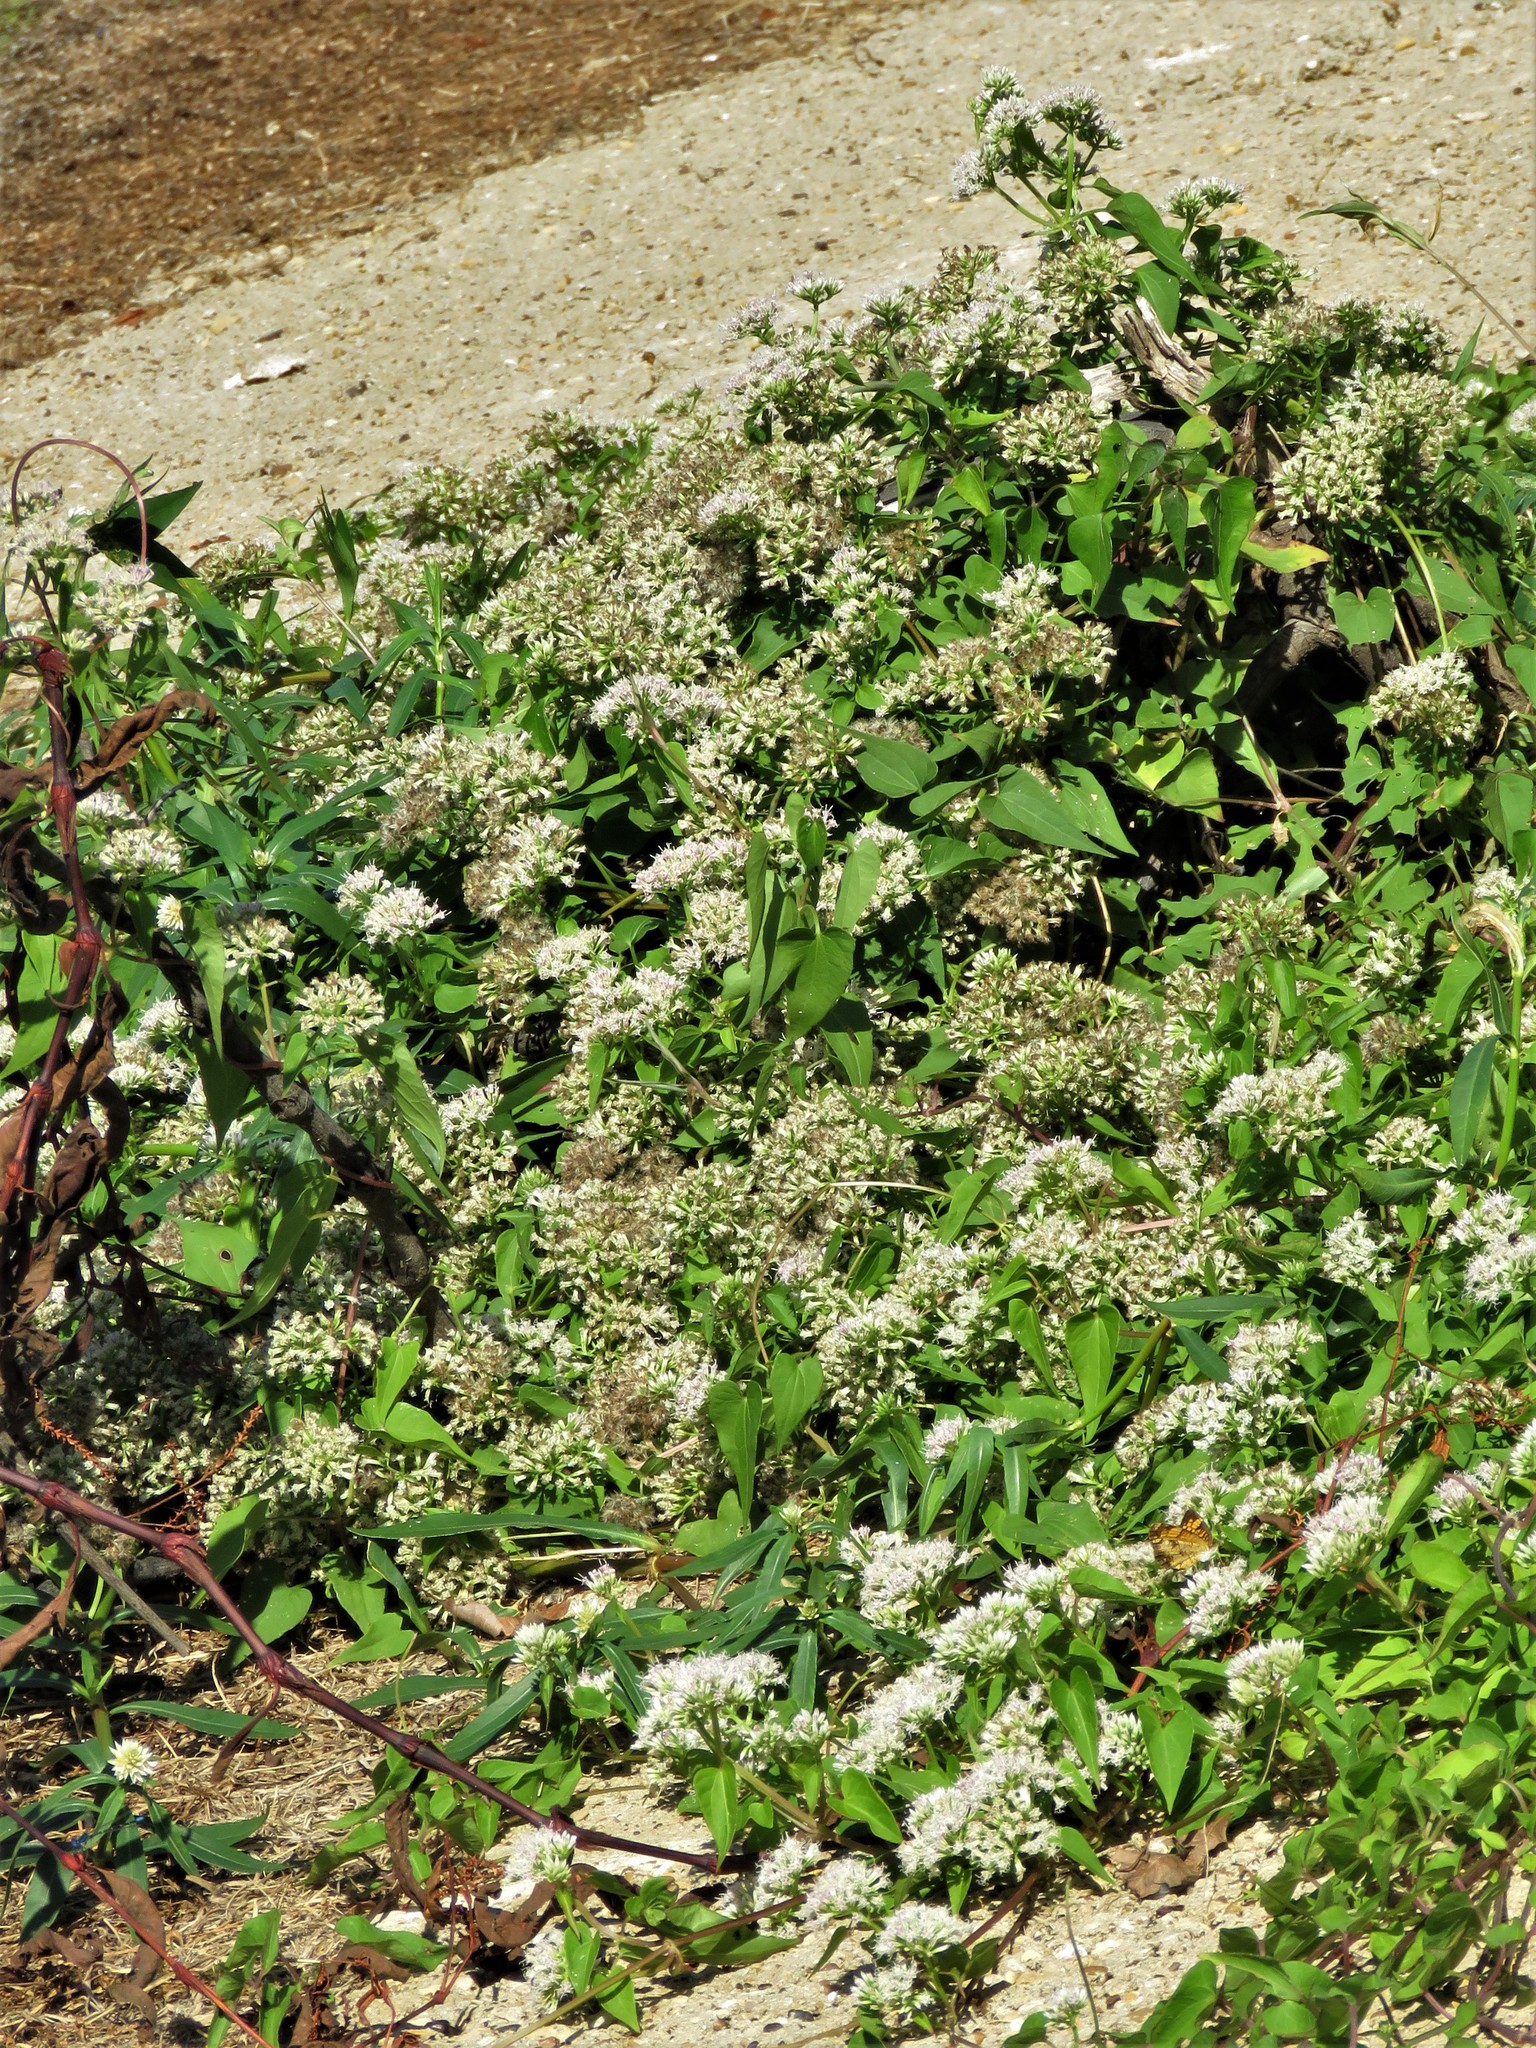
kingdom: Plantae
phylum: Tracheophyta
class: Magnoliopsida
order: Asterales
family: Asteraceae
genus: Mikania
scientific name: Mikania scandens
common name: Climbing hempvine
